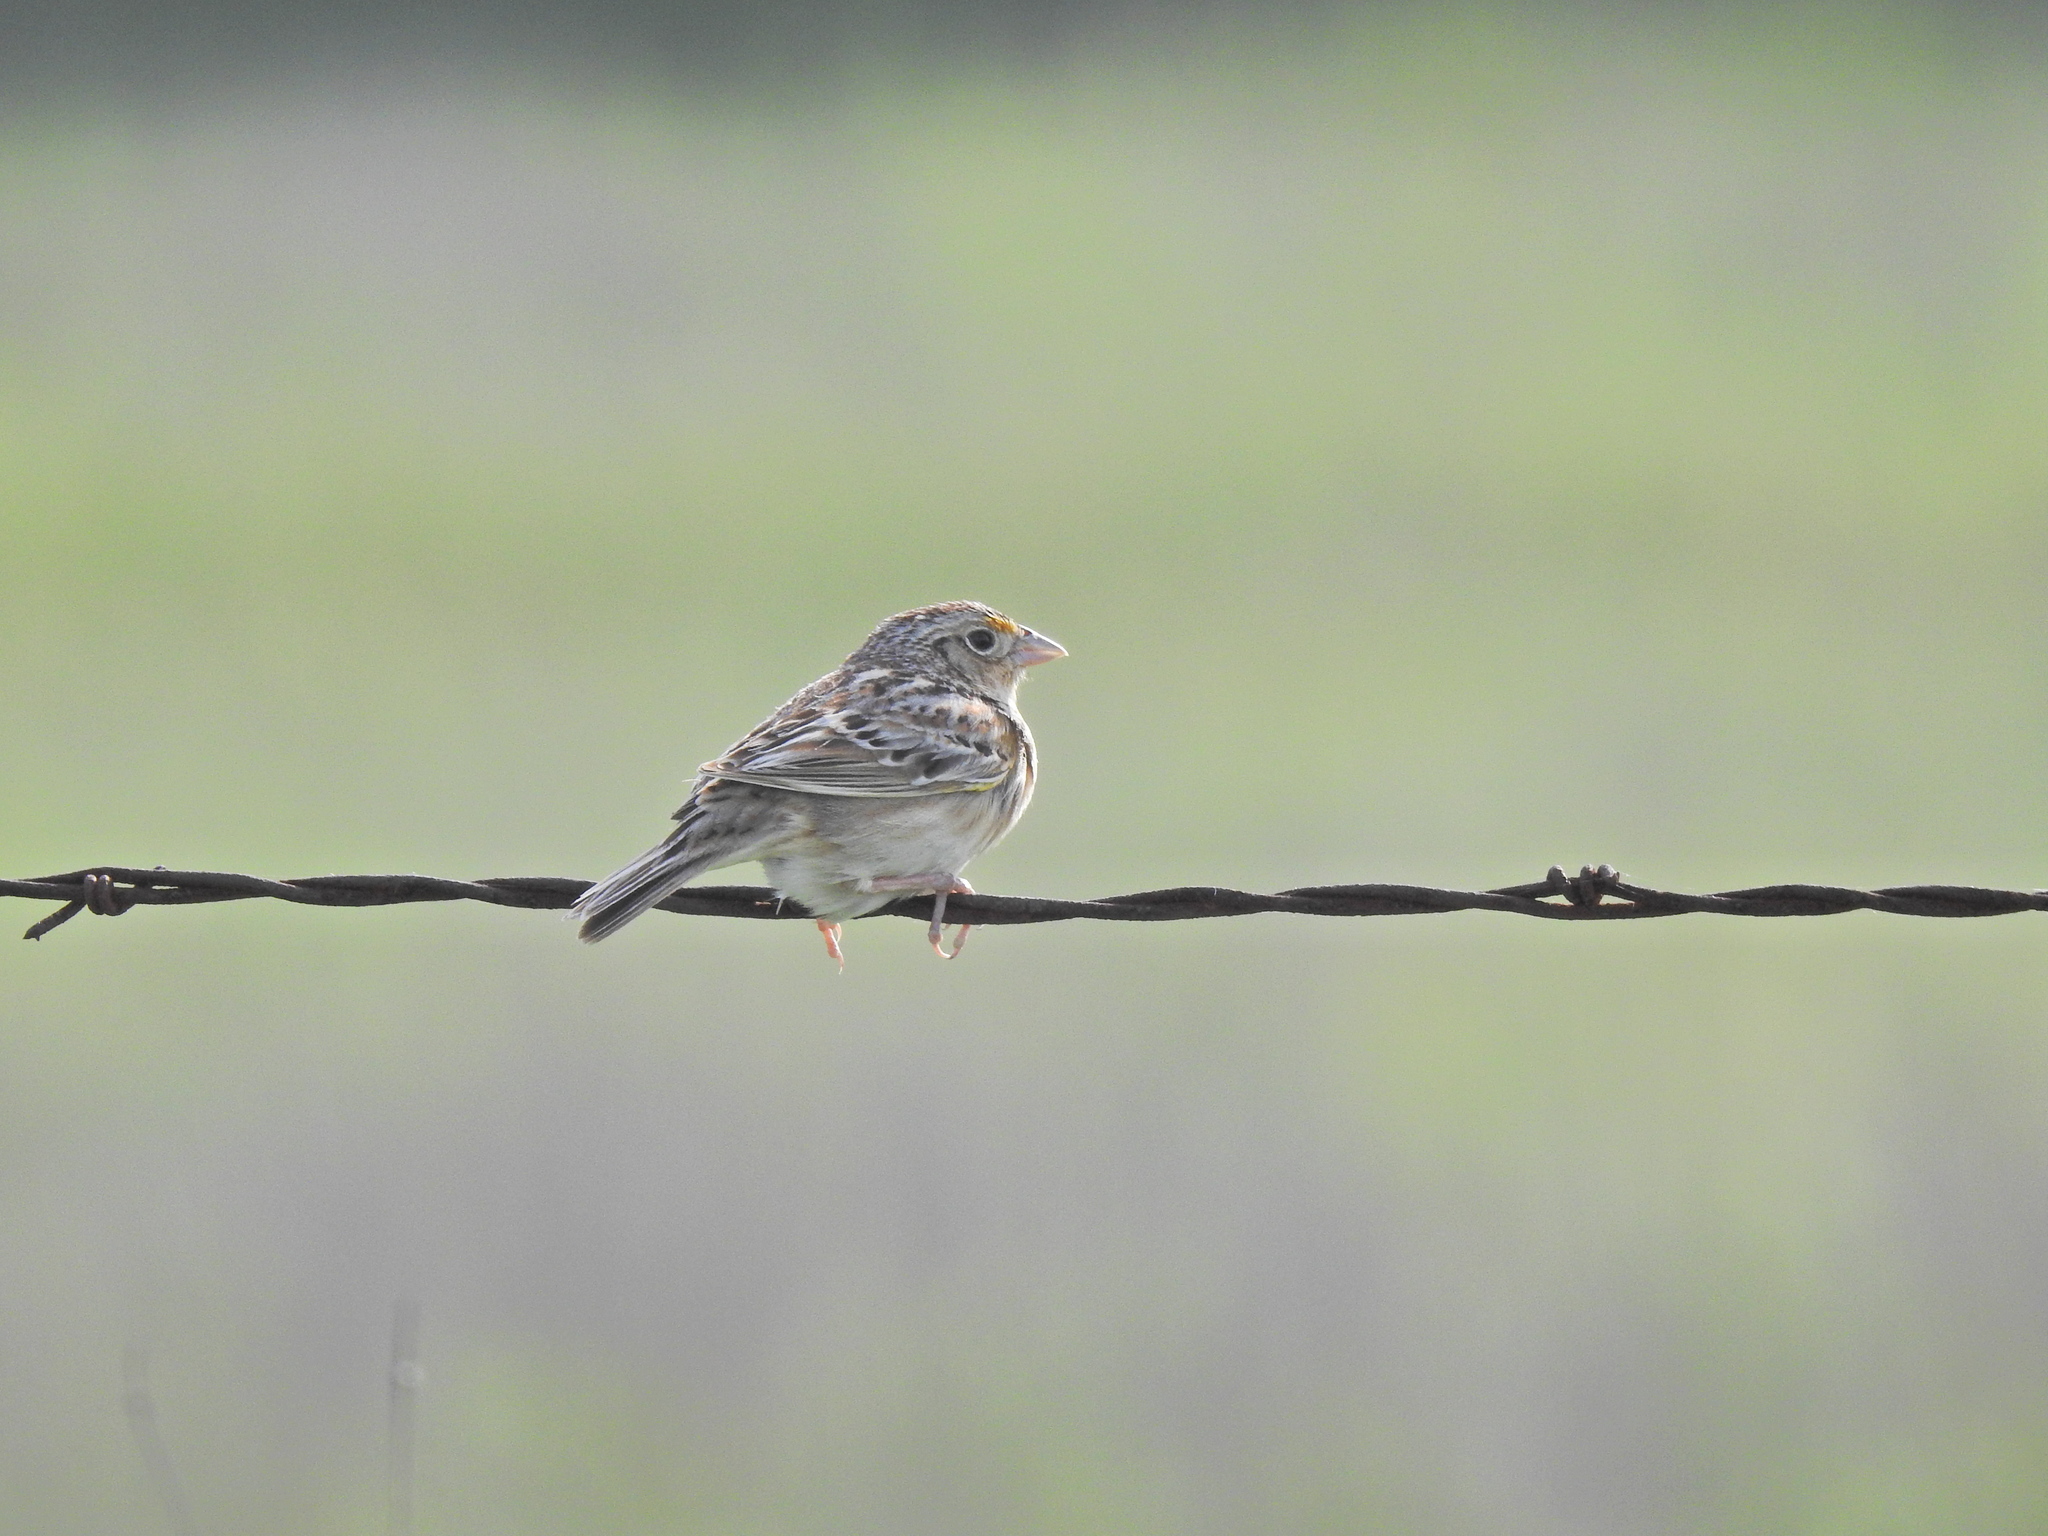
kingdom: Animalia
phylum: Chordata
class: Aves
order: Passeriformes
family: Passerellidae
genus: Ammodramus
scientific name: Ammodramus savannarum
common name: Grasshopper sparrow
